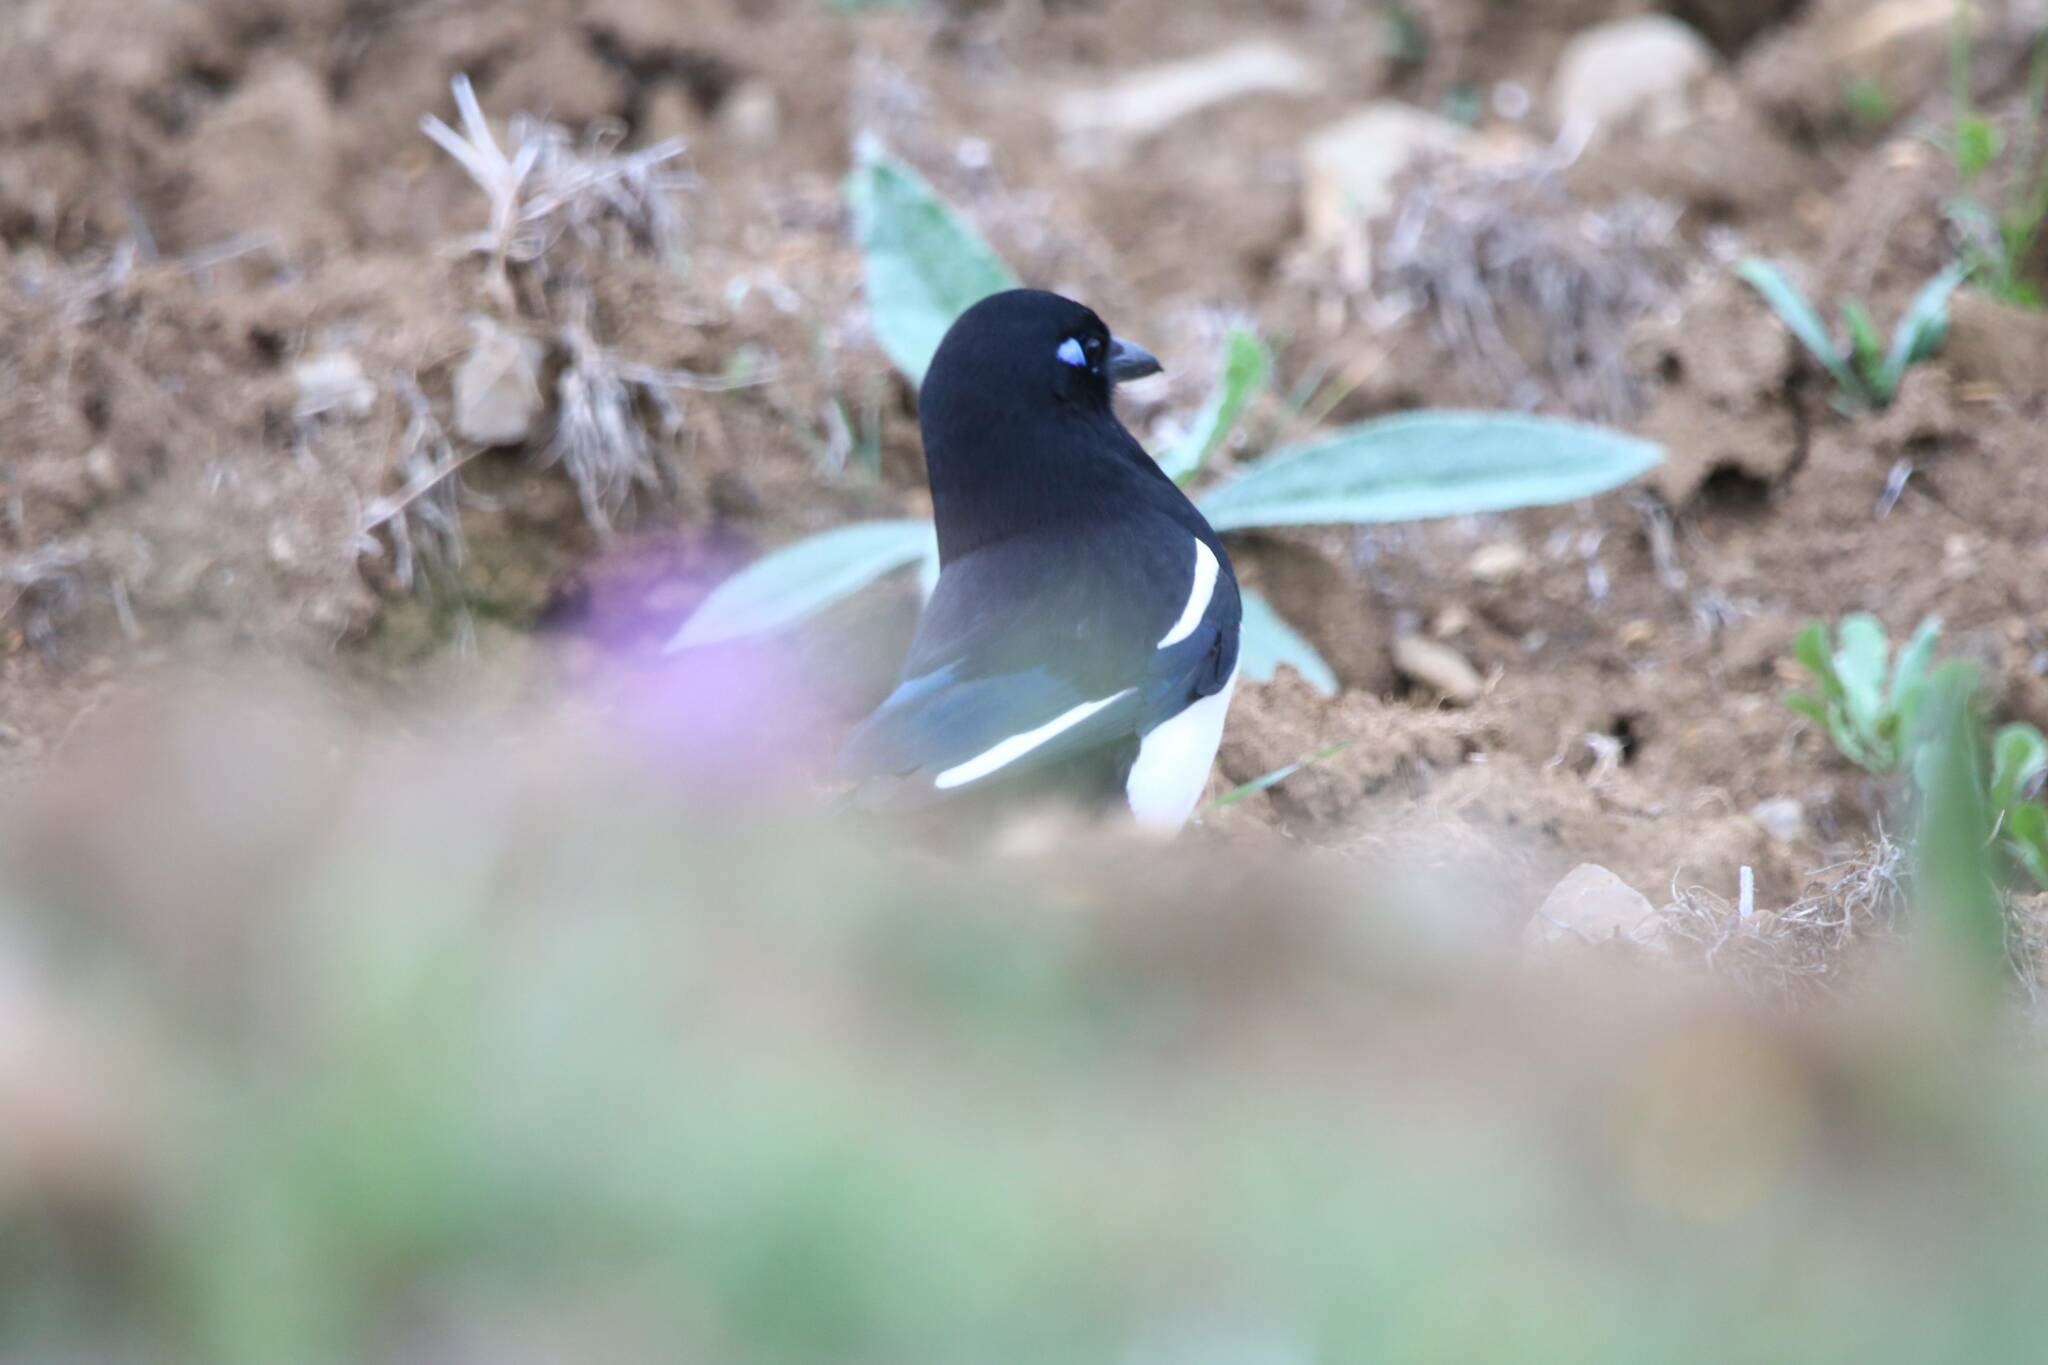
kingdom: Animalia
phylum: Chordata
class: Aves
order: Passeriformes
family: Corvidae
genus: Pica
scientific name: Pica mauritanica
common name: Maghreb magpie
